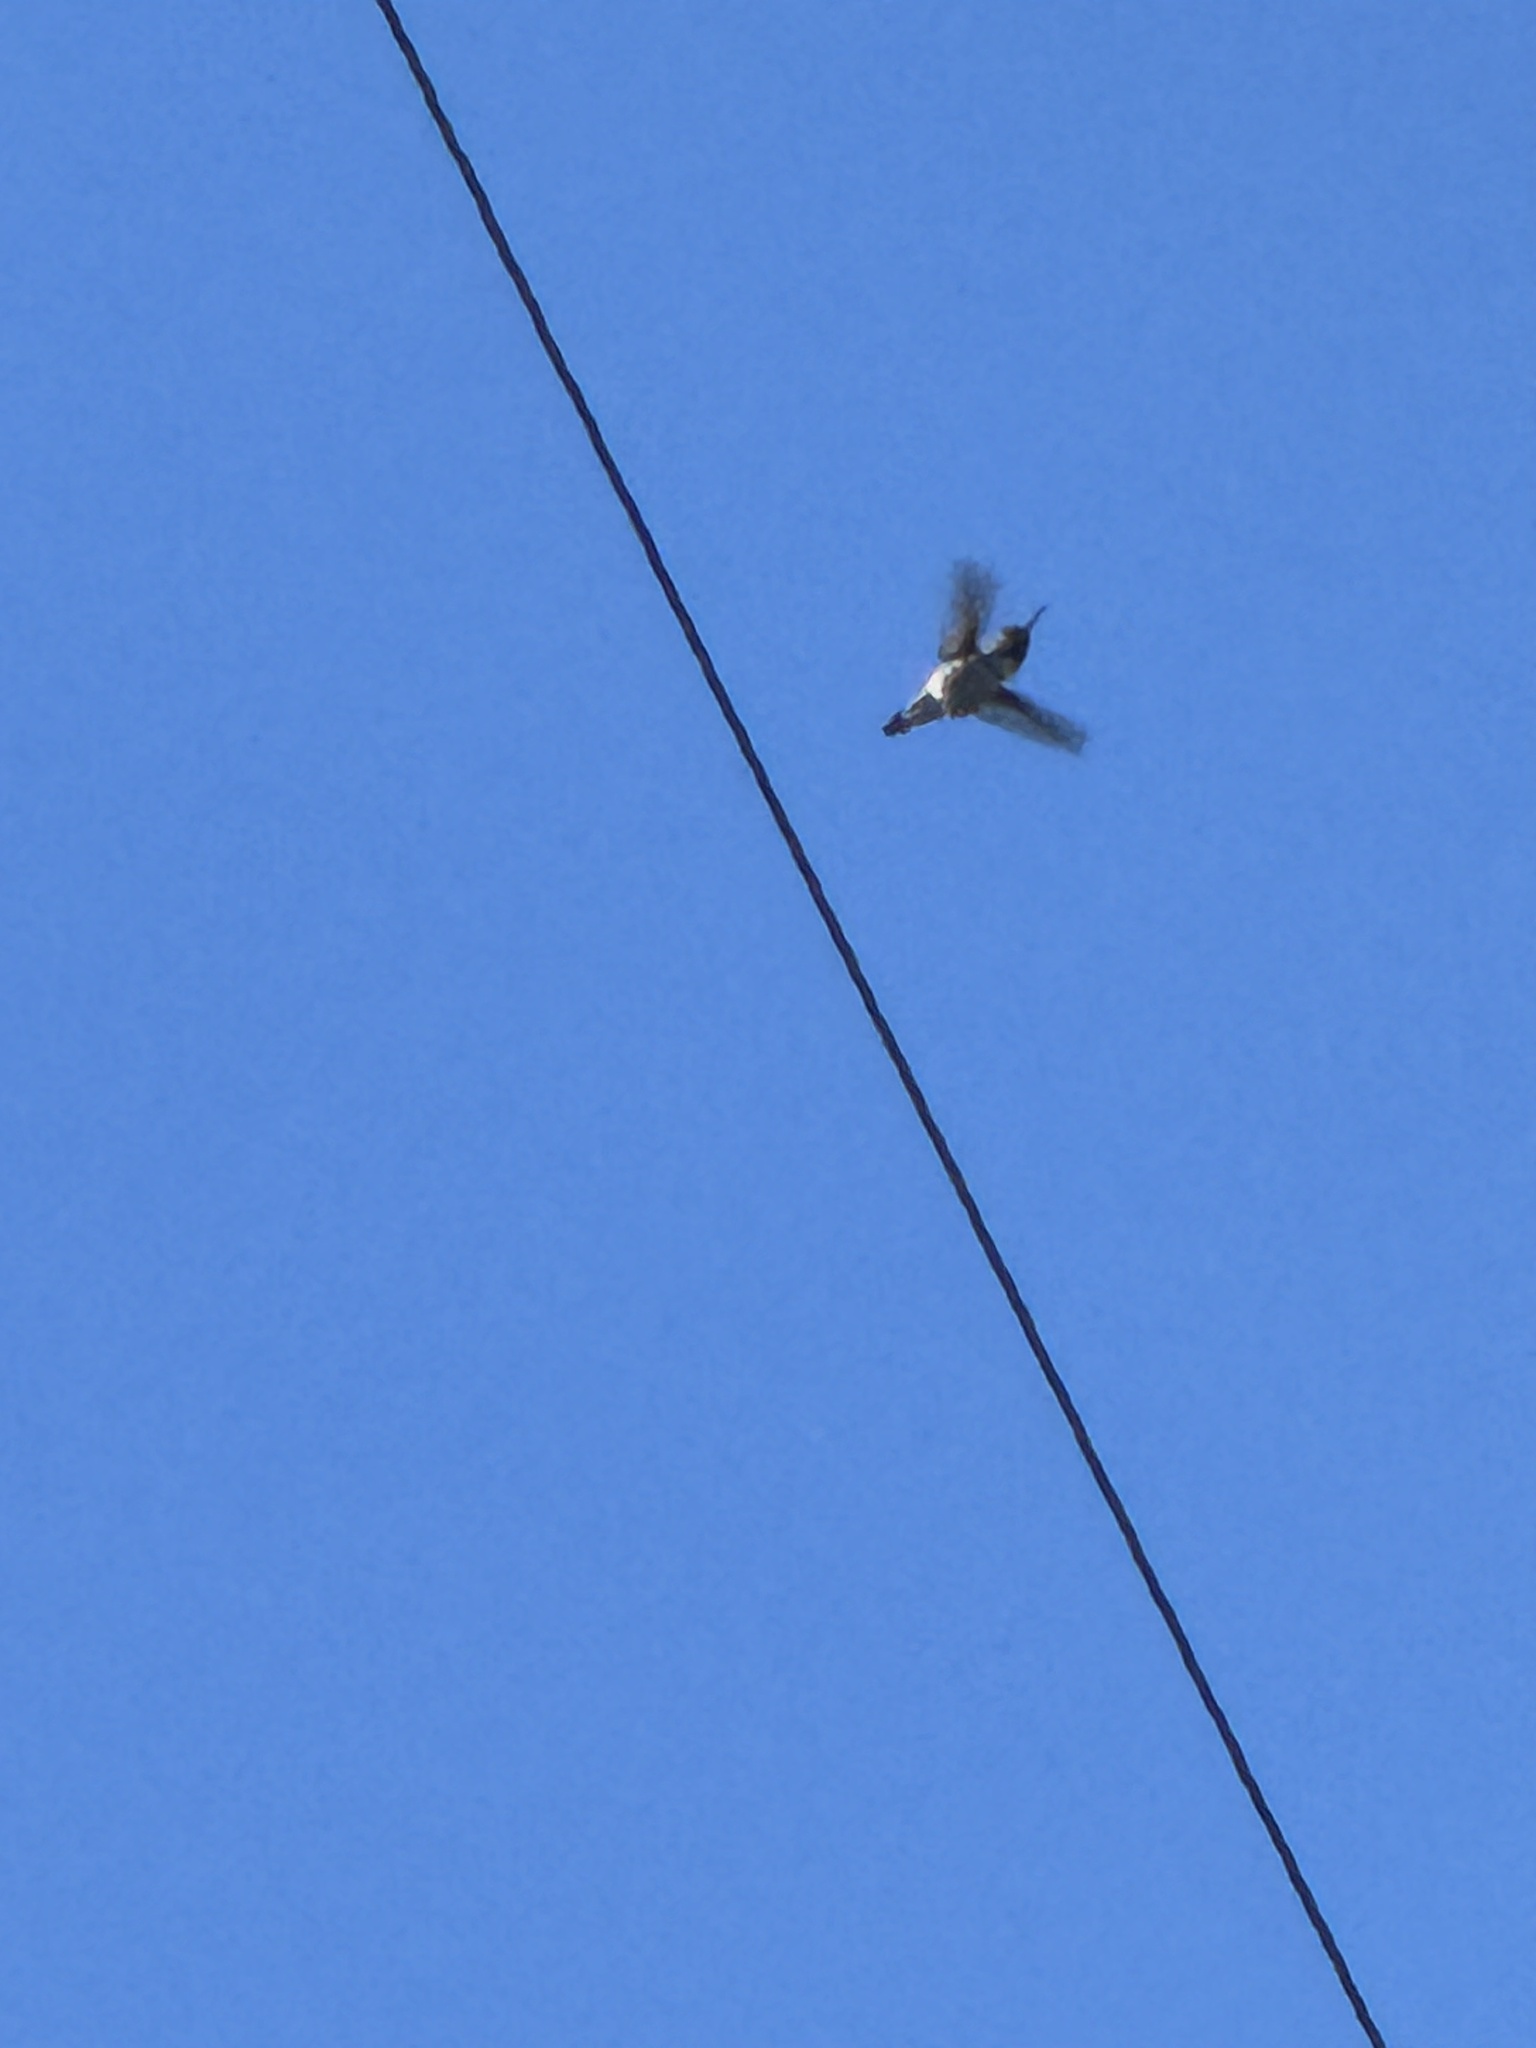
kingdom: Animalia
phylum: Chordata
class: Aves
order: Apodiformes
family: Trochilidae
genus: Calypte
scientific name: Calypte anna
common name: Anna's hummingbird
